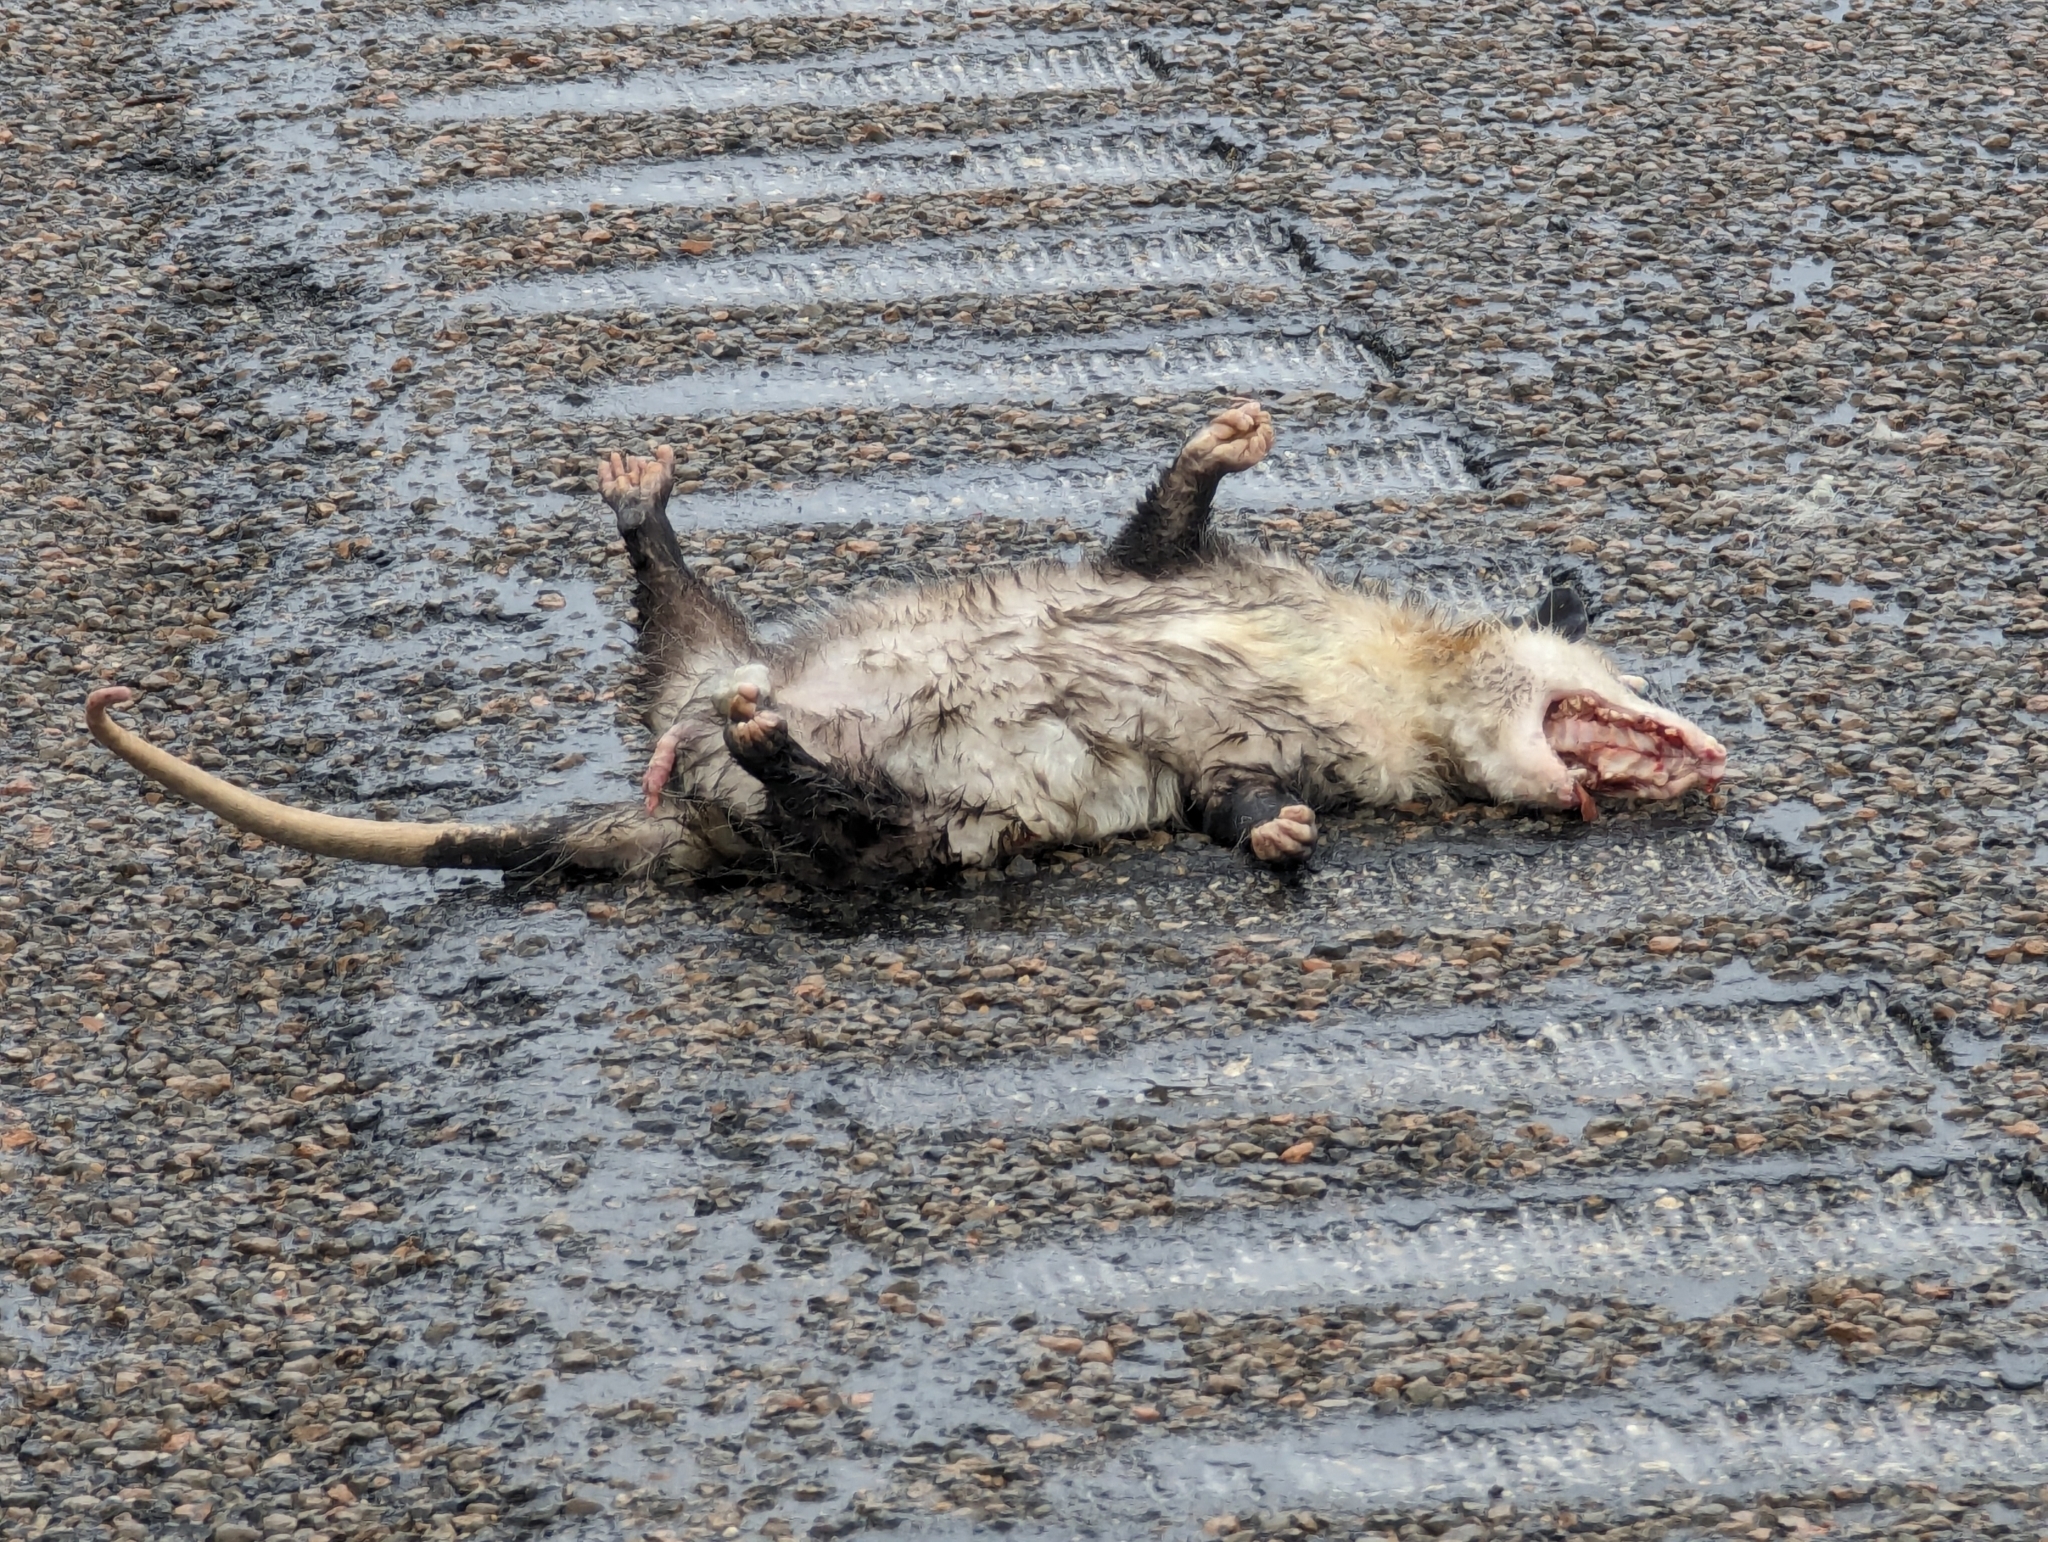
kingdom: Animalia
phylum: Chordata
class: Mammalia
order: Didelphimorphia
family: Didelphidae
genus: Didelphis
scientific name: Didelphis virginiana
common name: Virginia opossum
